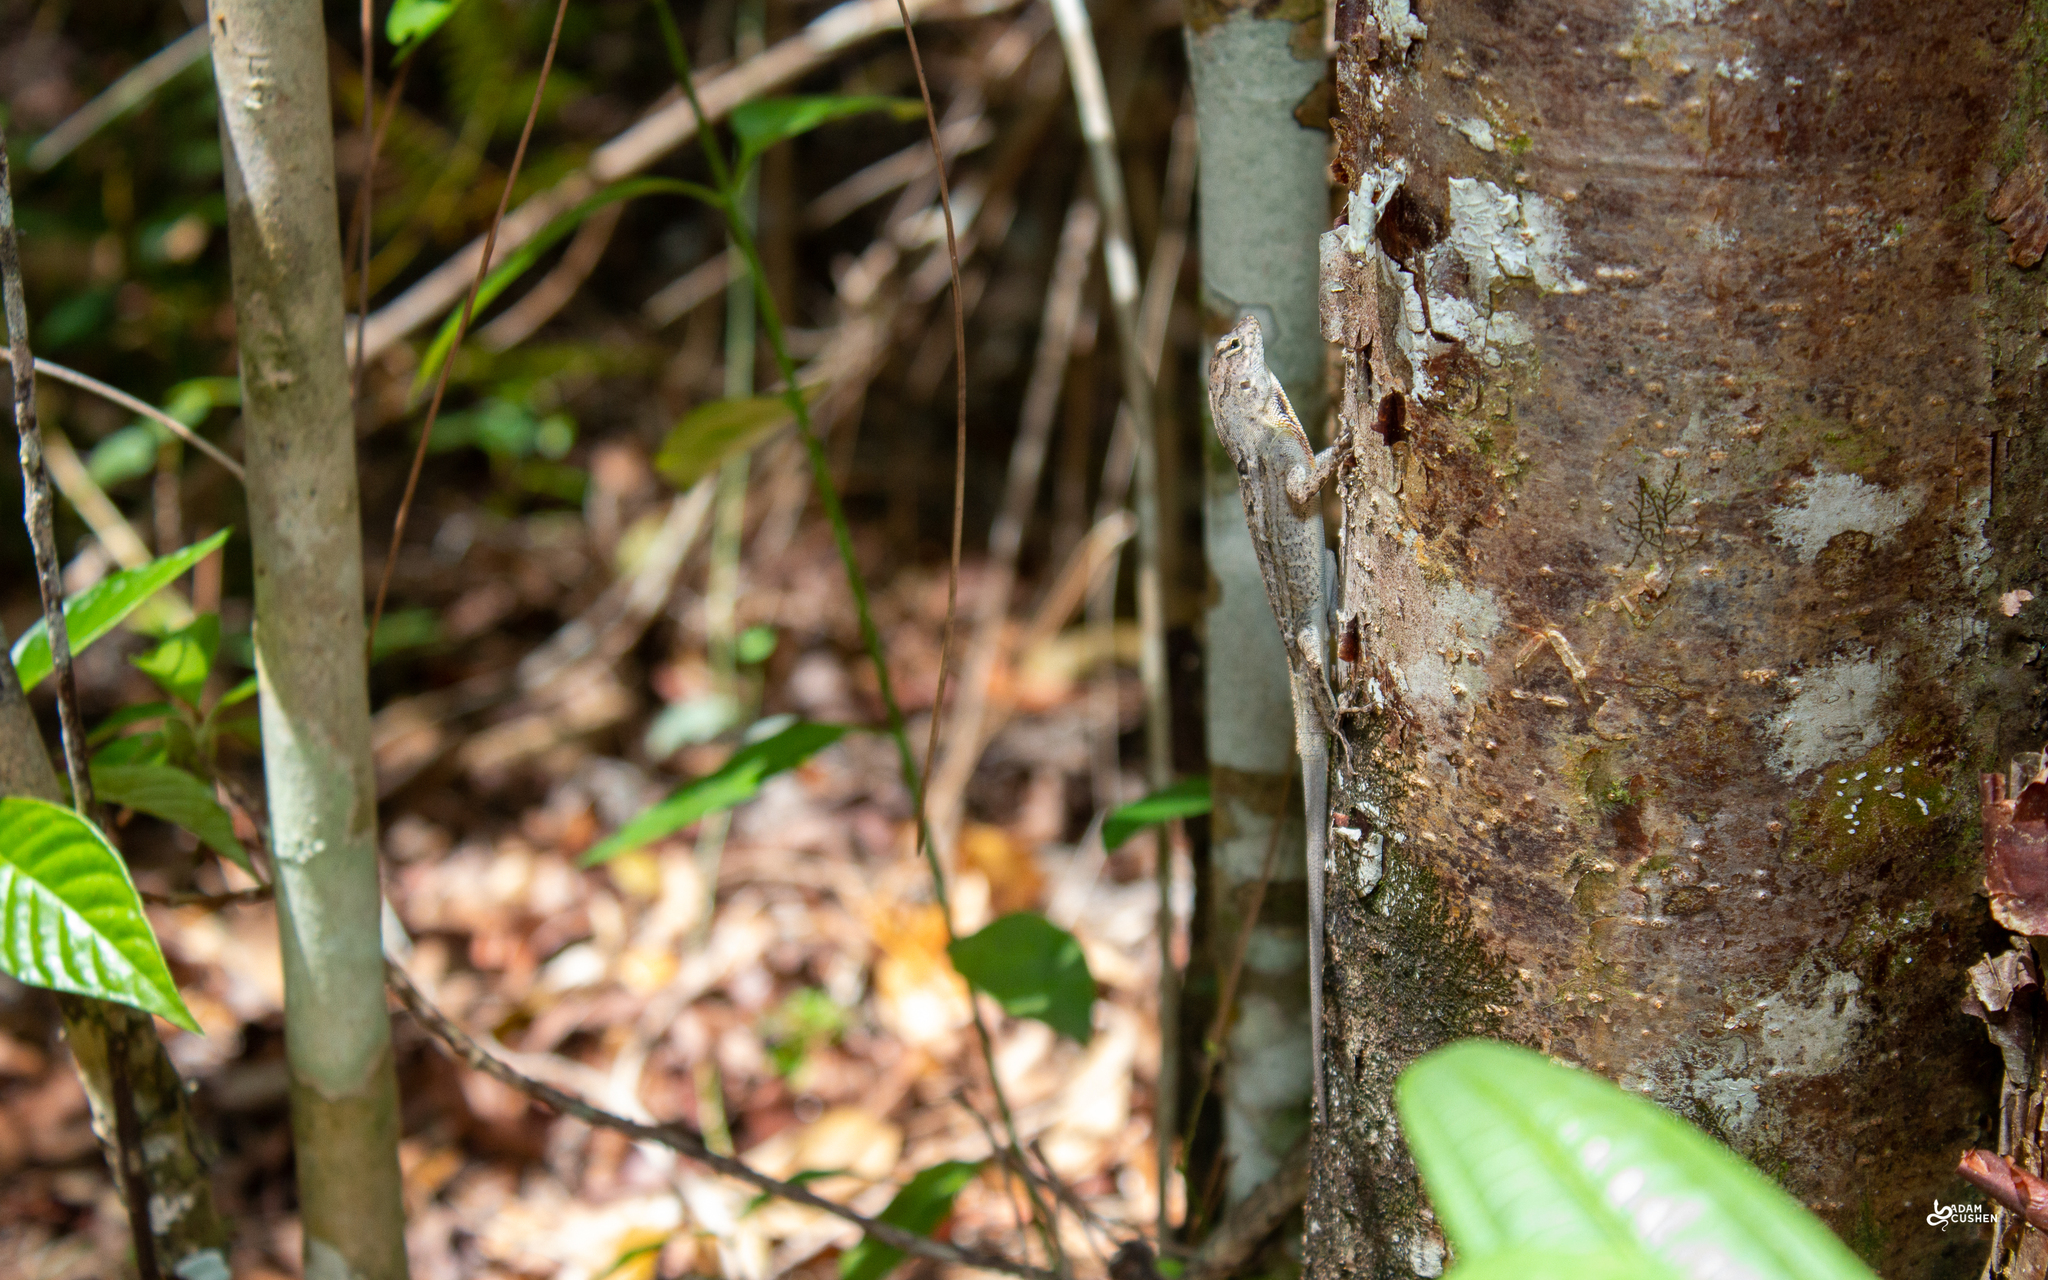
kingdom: Animalia
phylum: Chordata
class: Squamata
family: Dactyloidae
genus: Anolis
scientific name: Anolis sagrei
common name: Brown anole
